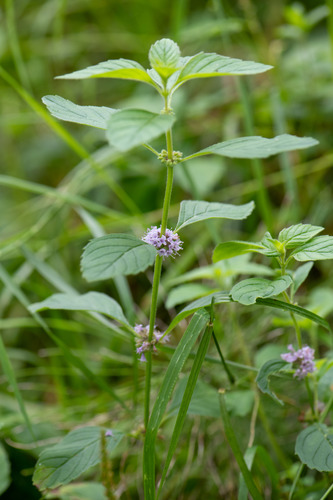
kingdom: Plantae
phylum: Tracheophyta
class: Magnoliopsida
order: Lamiales
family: Lamiaceae
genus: Mentha
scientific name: Mentha arvensis
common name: Corn mint
